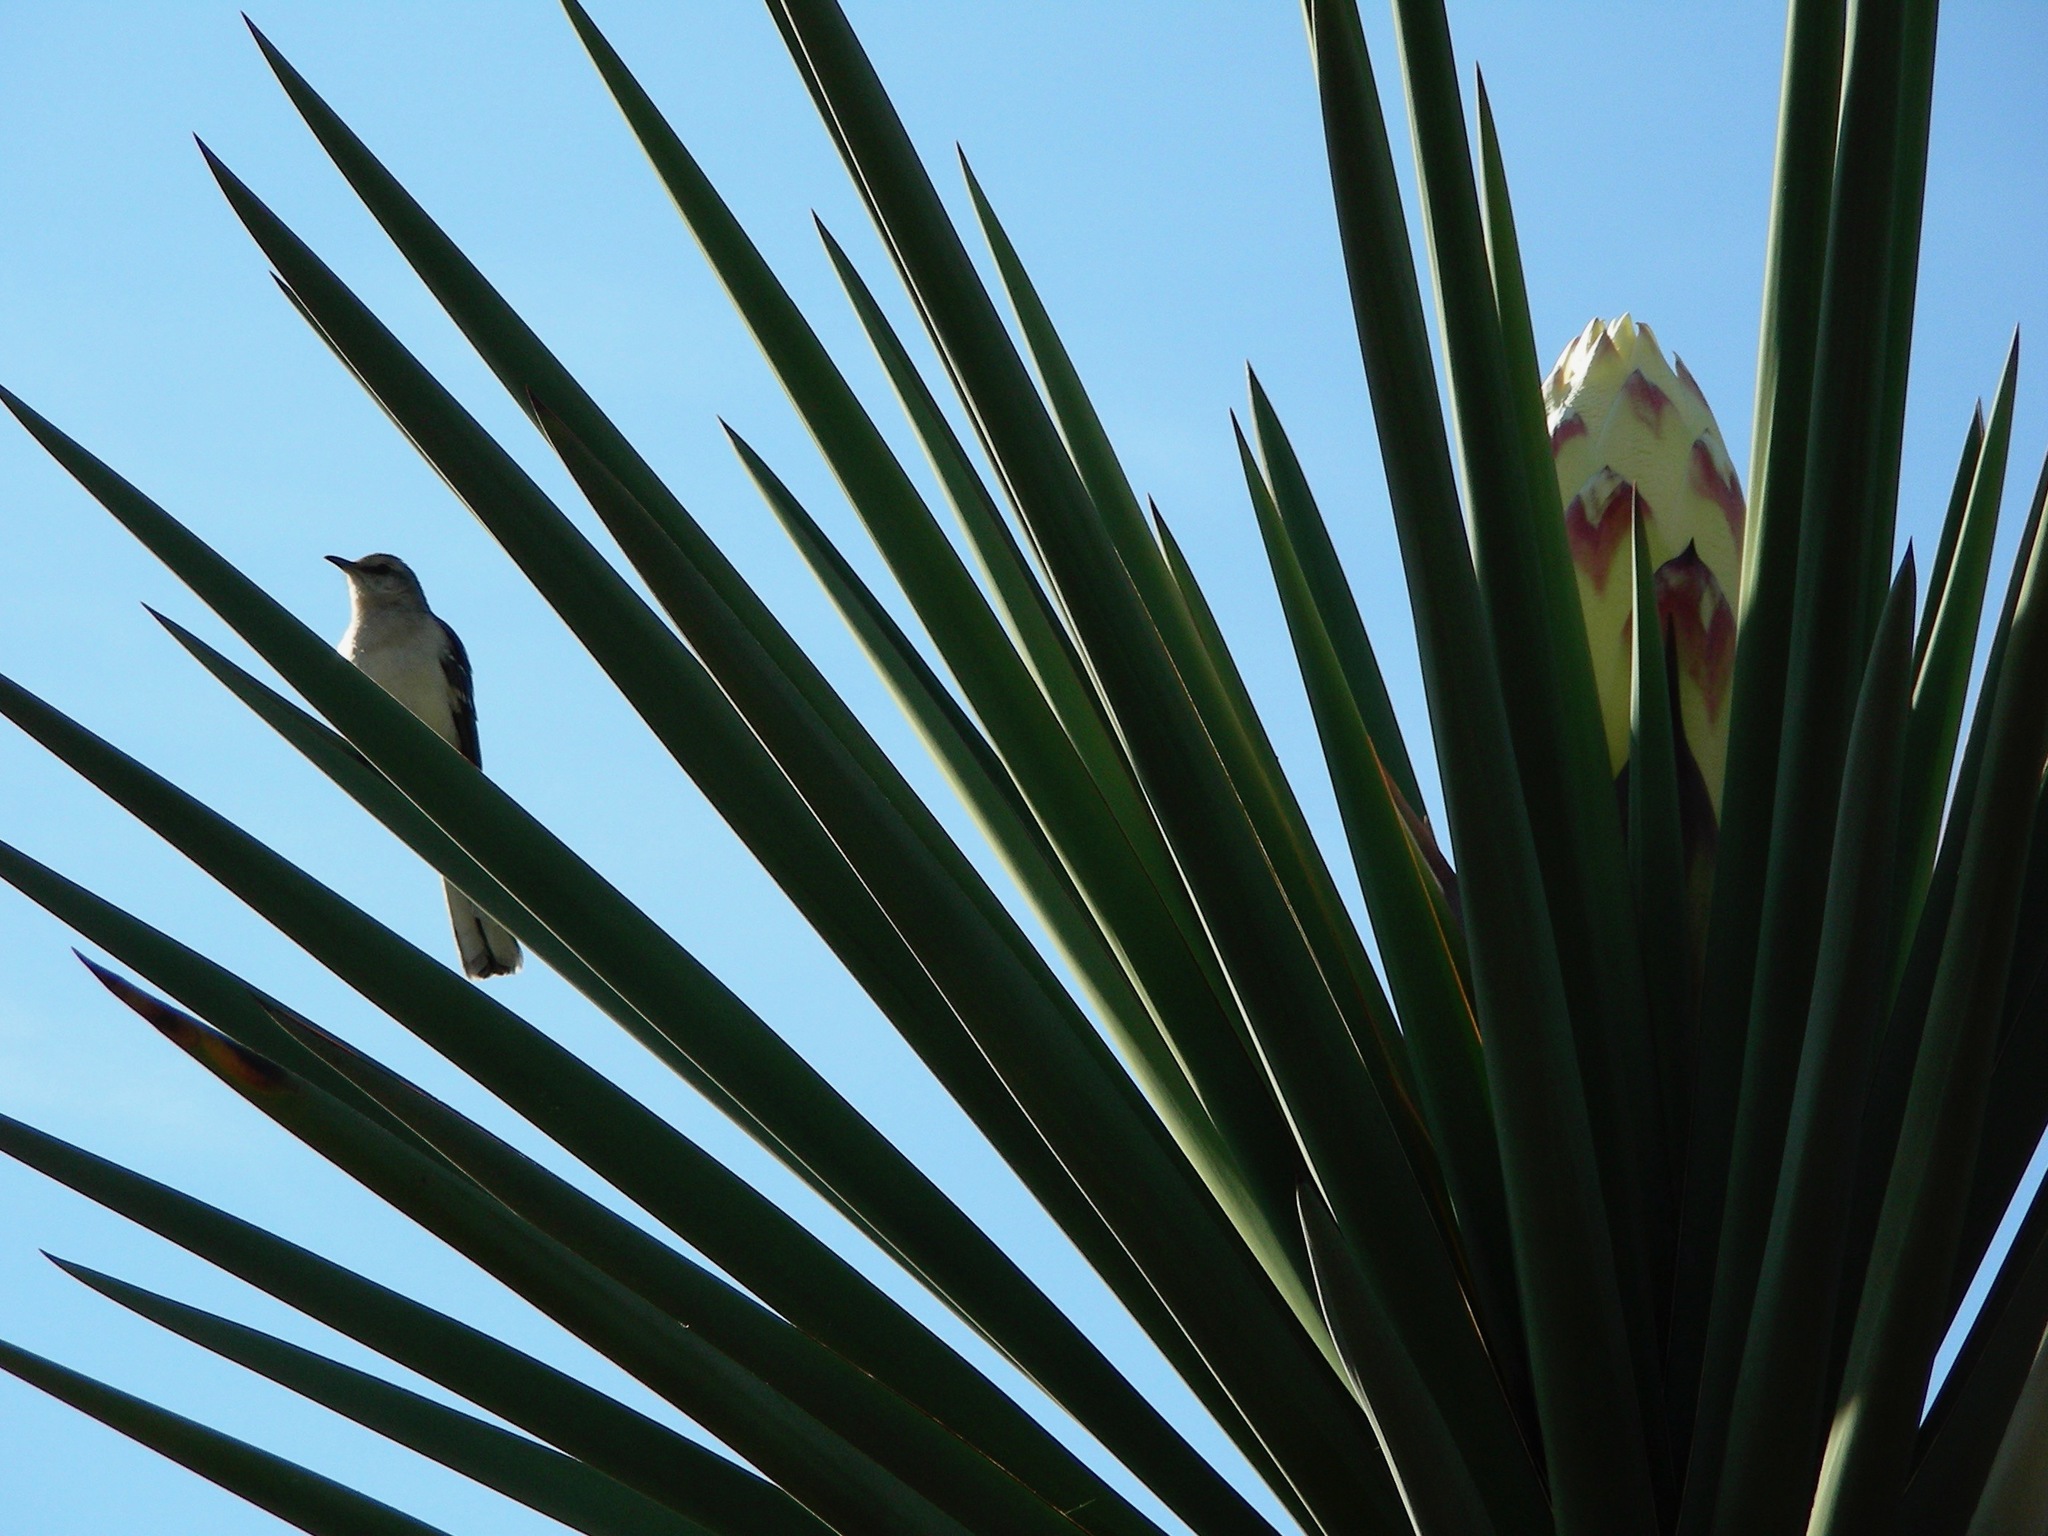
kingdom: Animalia
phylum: Chordata
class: Aves
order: Passeriformes
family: Mimidae
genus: Mimus
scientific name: Mimus polyglottos
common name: Northern mockingbird
